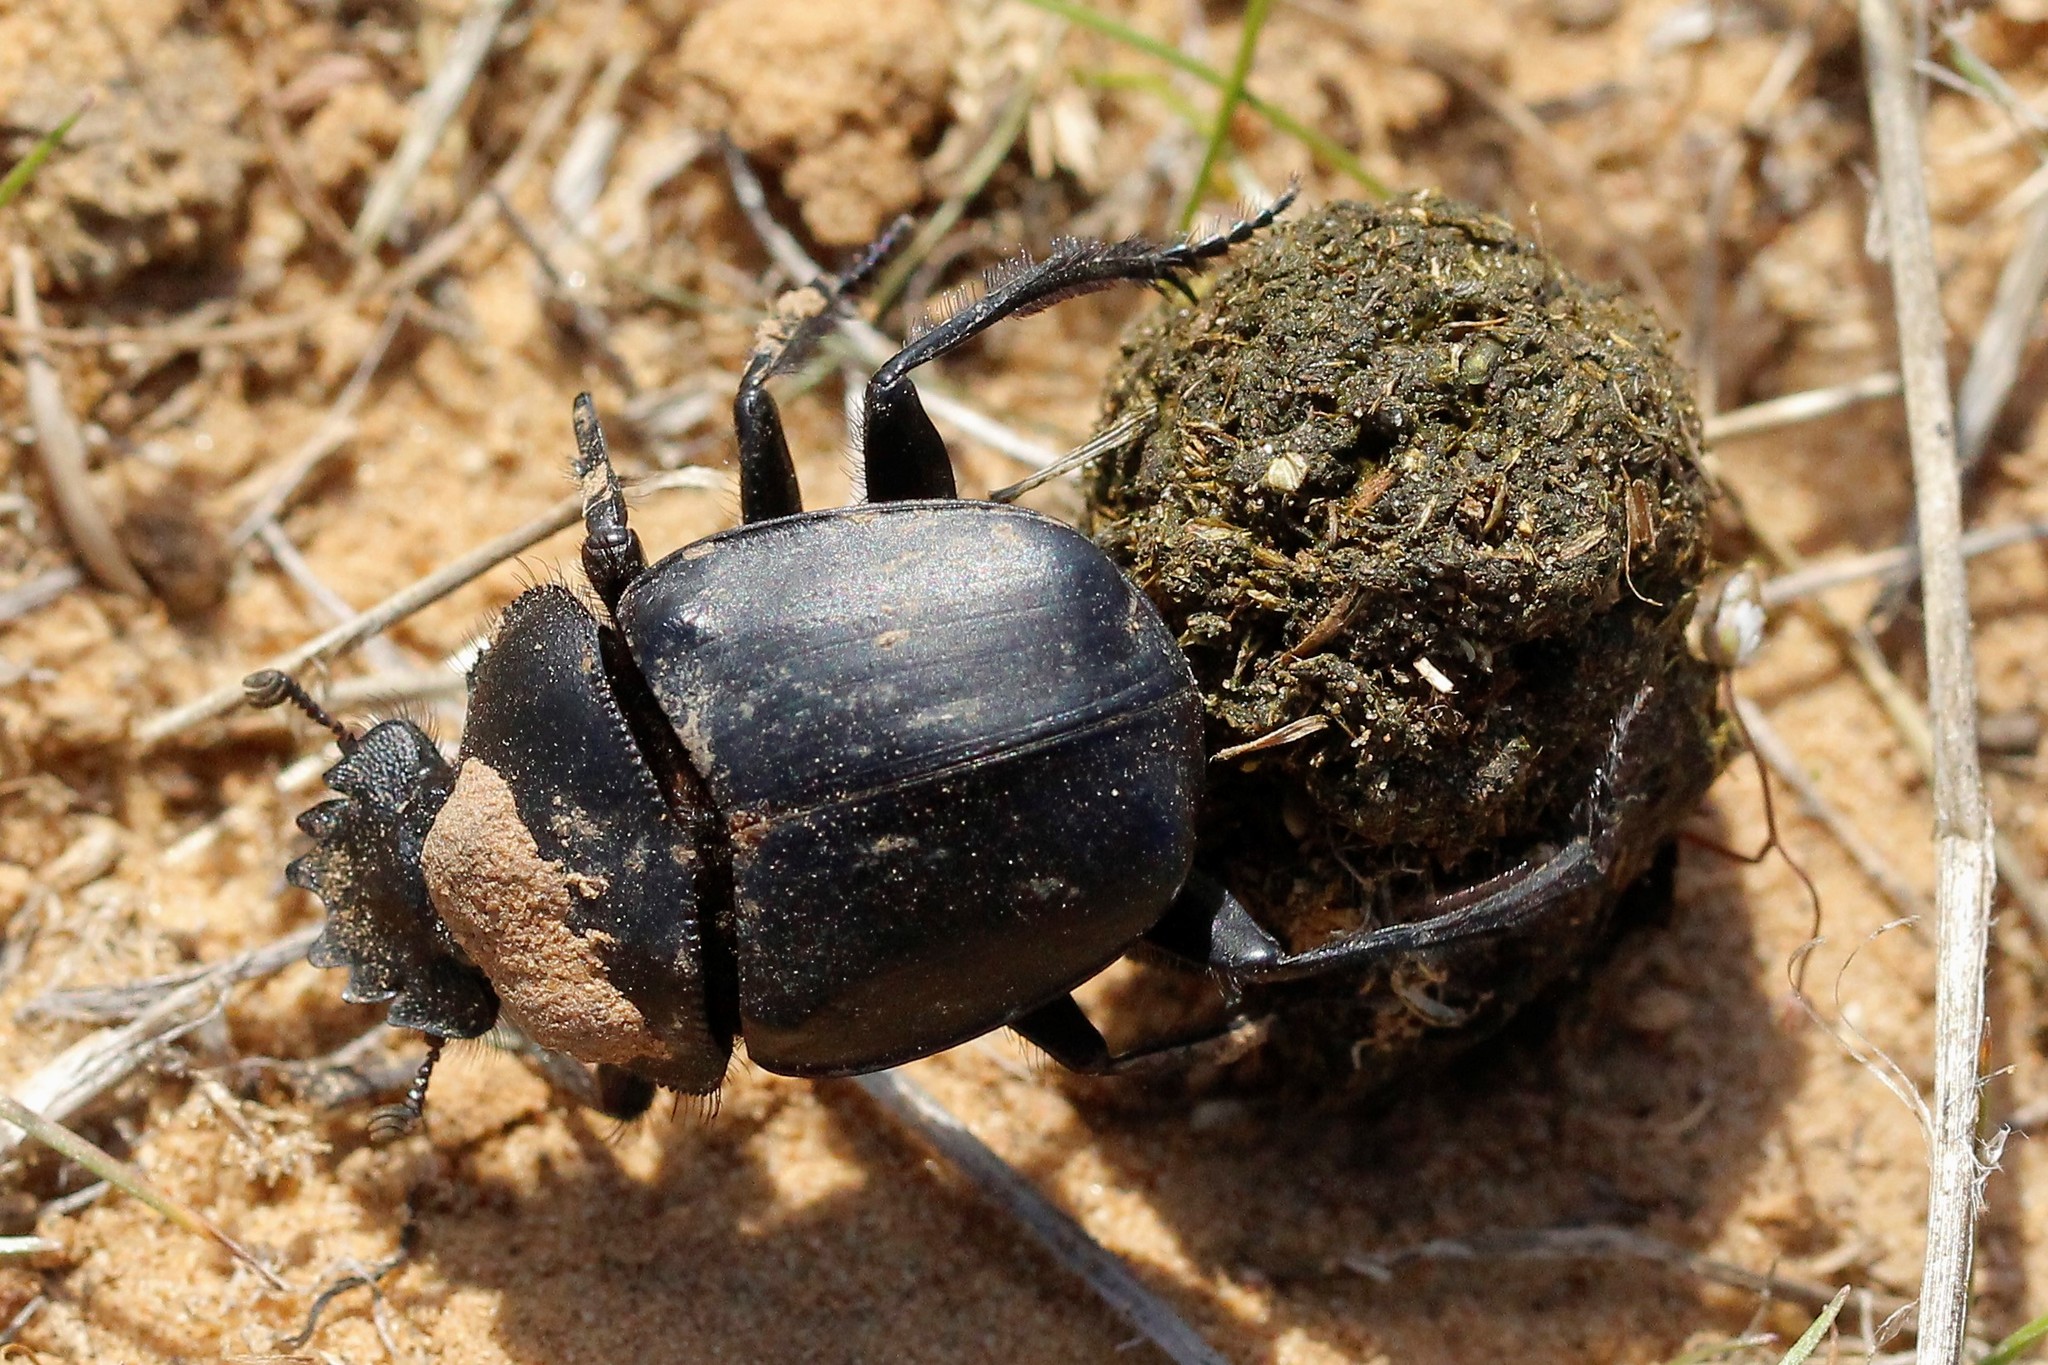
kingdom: Animalia
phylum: Arthropoda
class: Insecta
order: Coleoptera
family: Scarabaeidae
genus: Scarabaeus
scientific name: Scarabaeus pius
